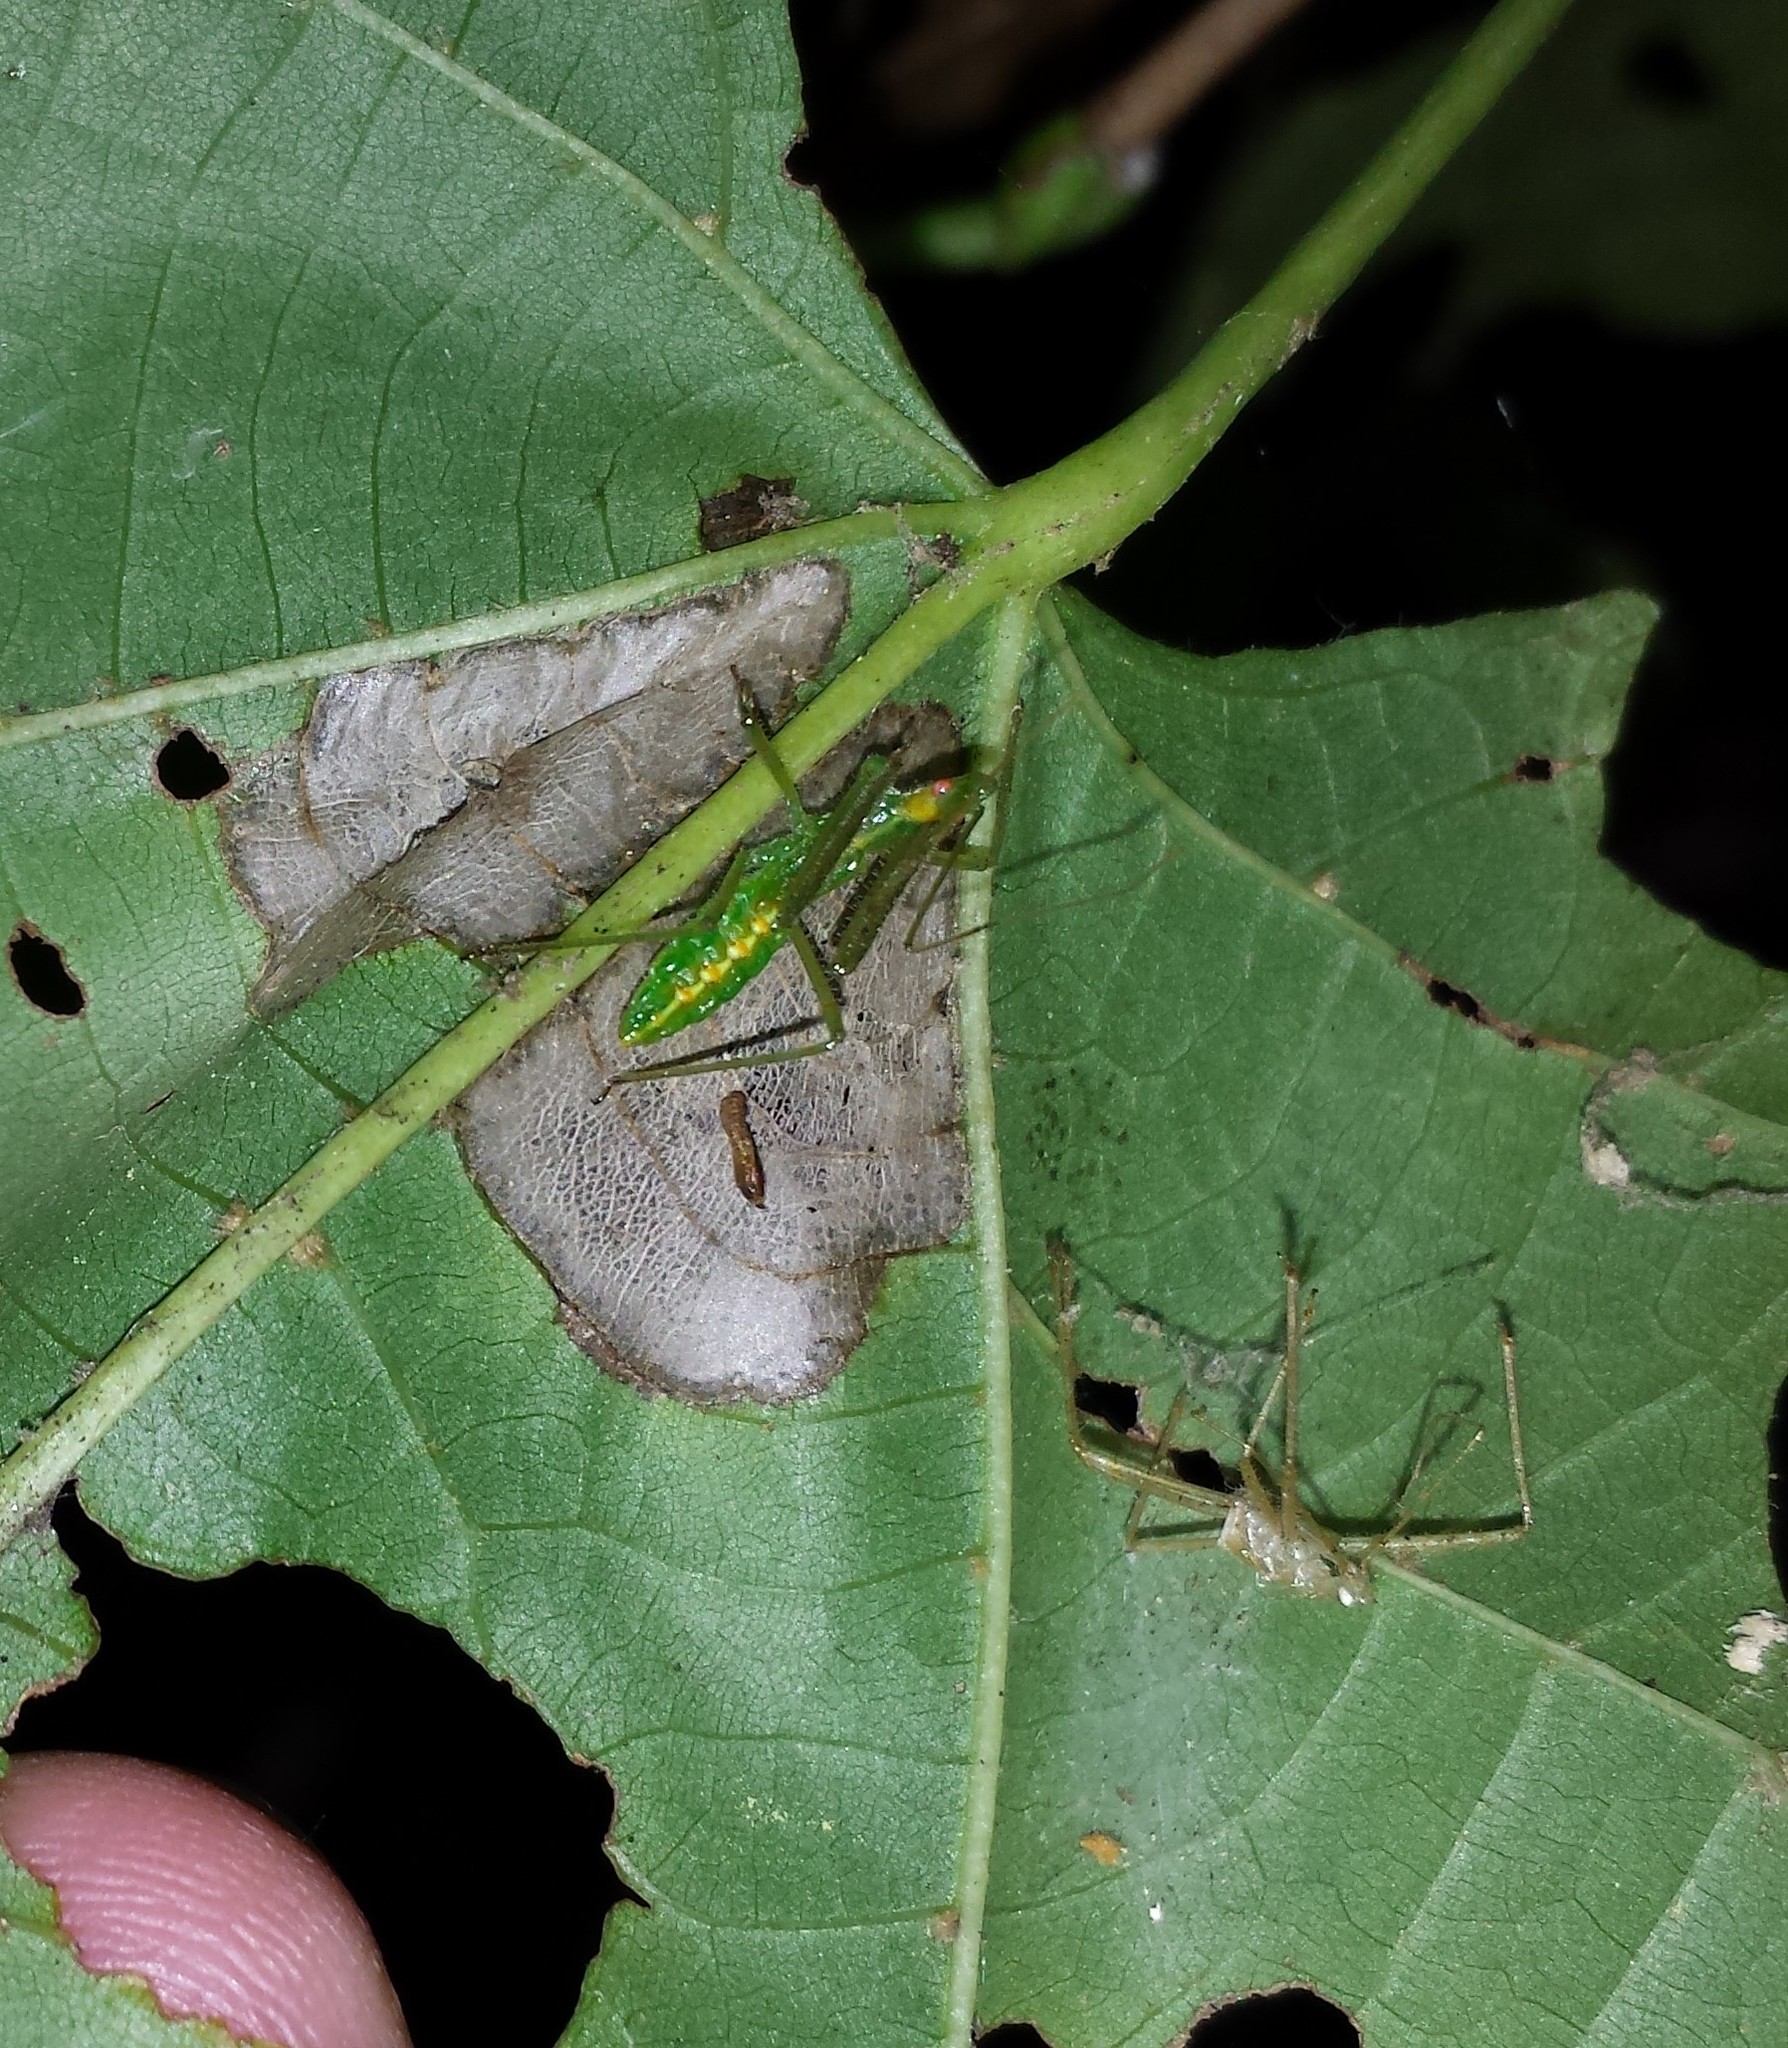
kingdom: Animalia
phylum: Arthropoda
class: Insecta
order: Hemiptera
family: Reduviidae
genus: Zelus
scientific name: Zelus luridus
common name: Pale green assassin bug
